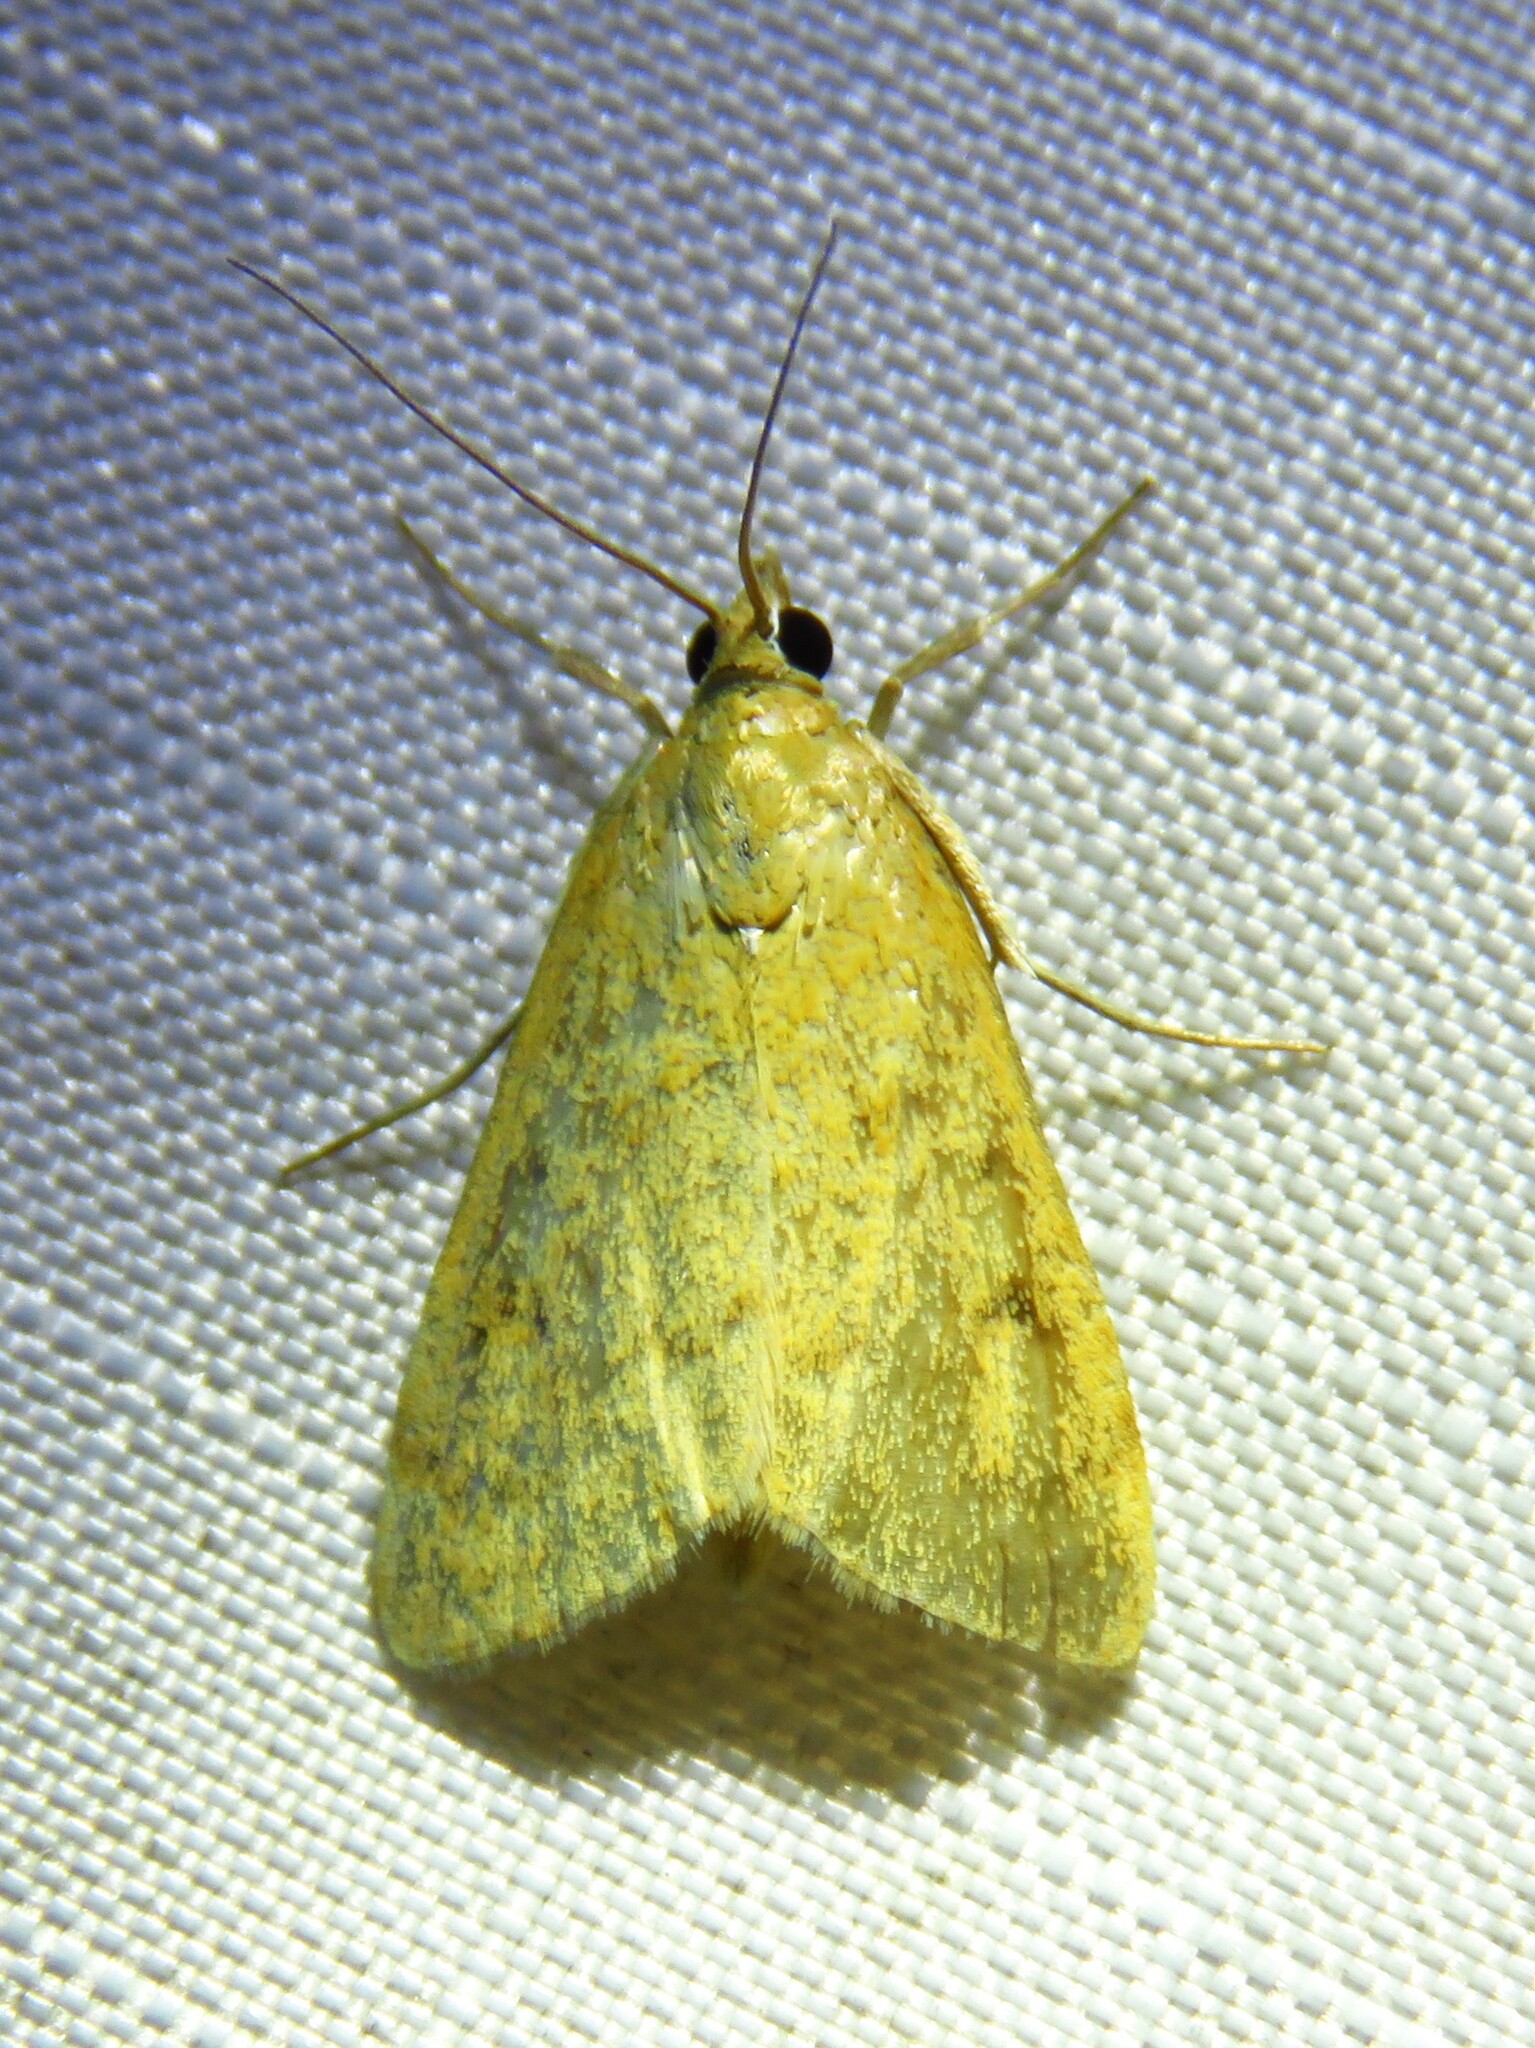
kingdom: Animalia
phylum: Arthropoda
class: Insecta
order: Lepidoptera
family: Crambidae
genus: Achyra
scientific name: Achyra rantalis
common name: Garden webworm
